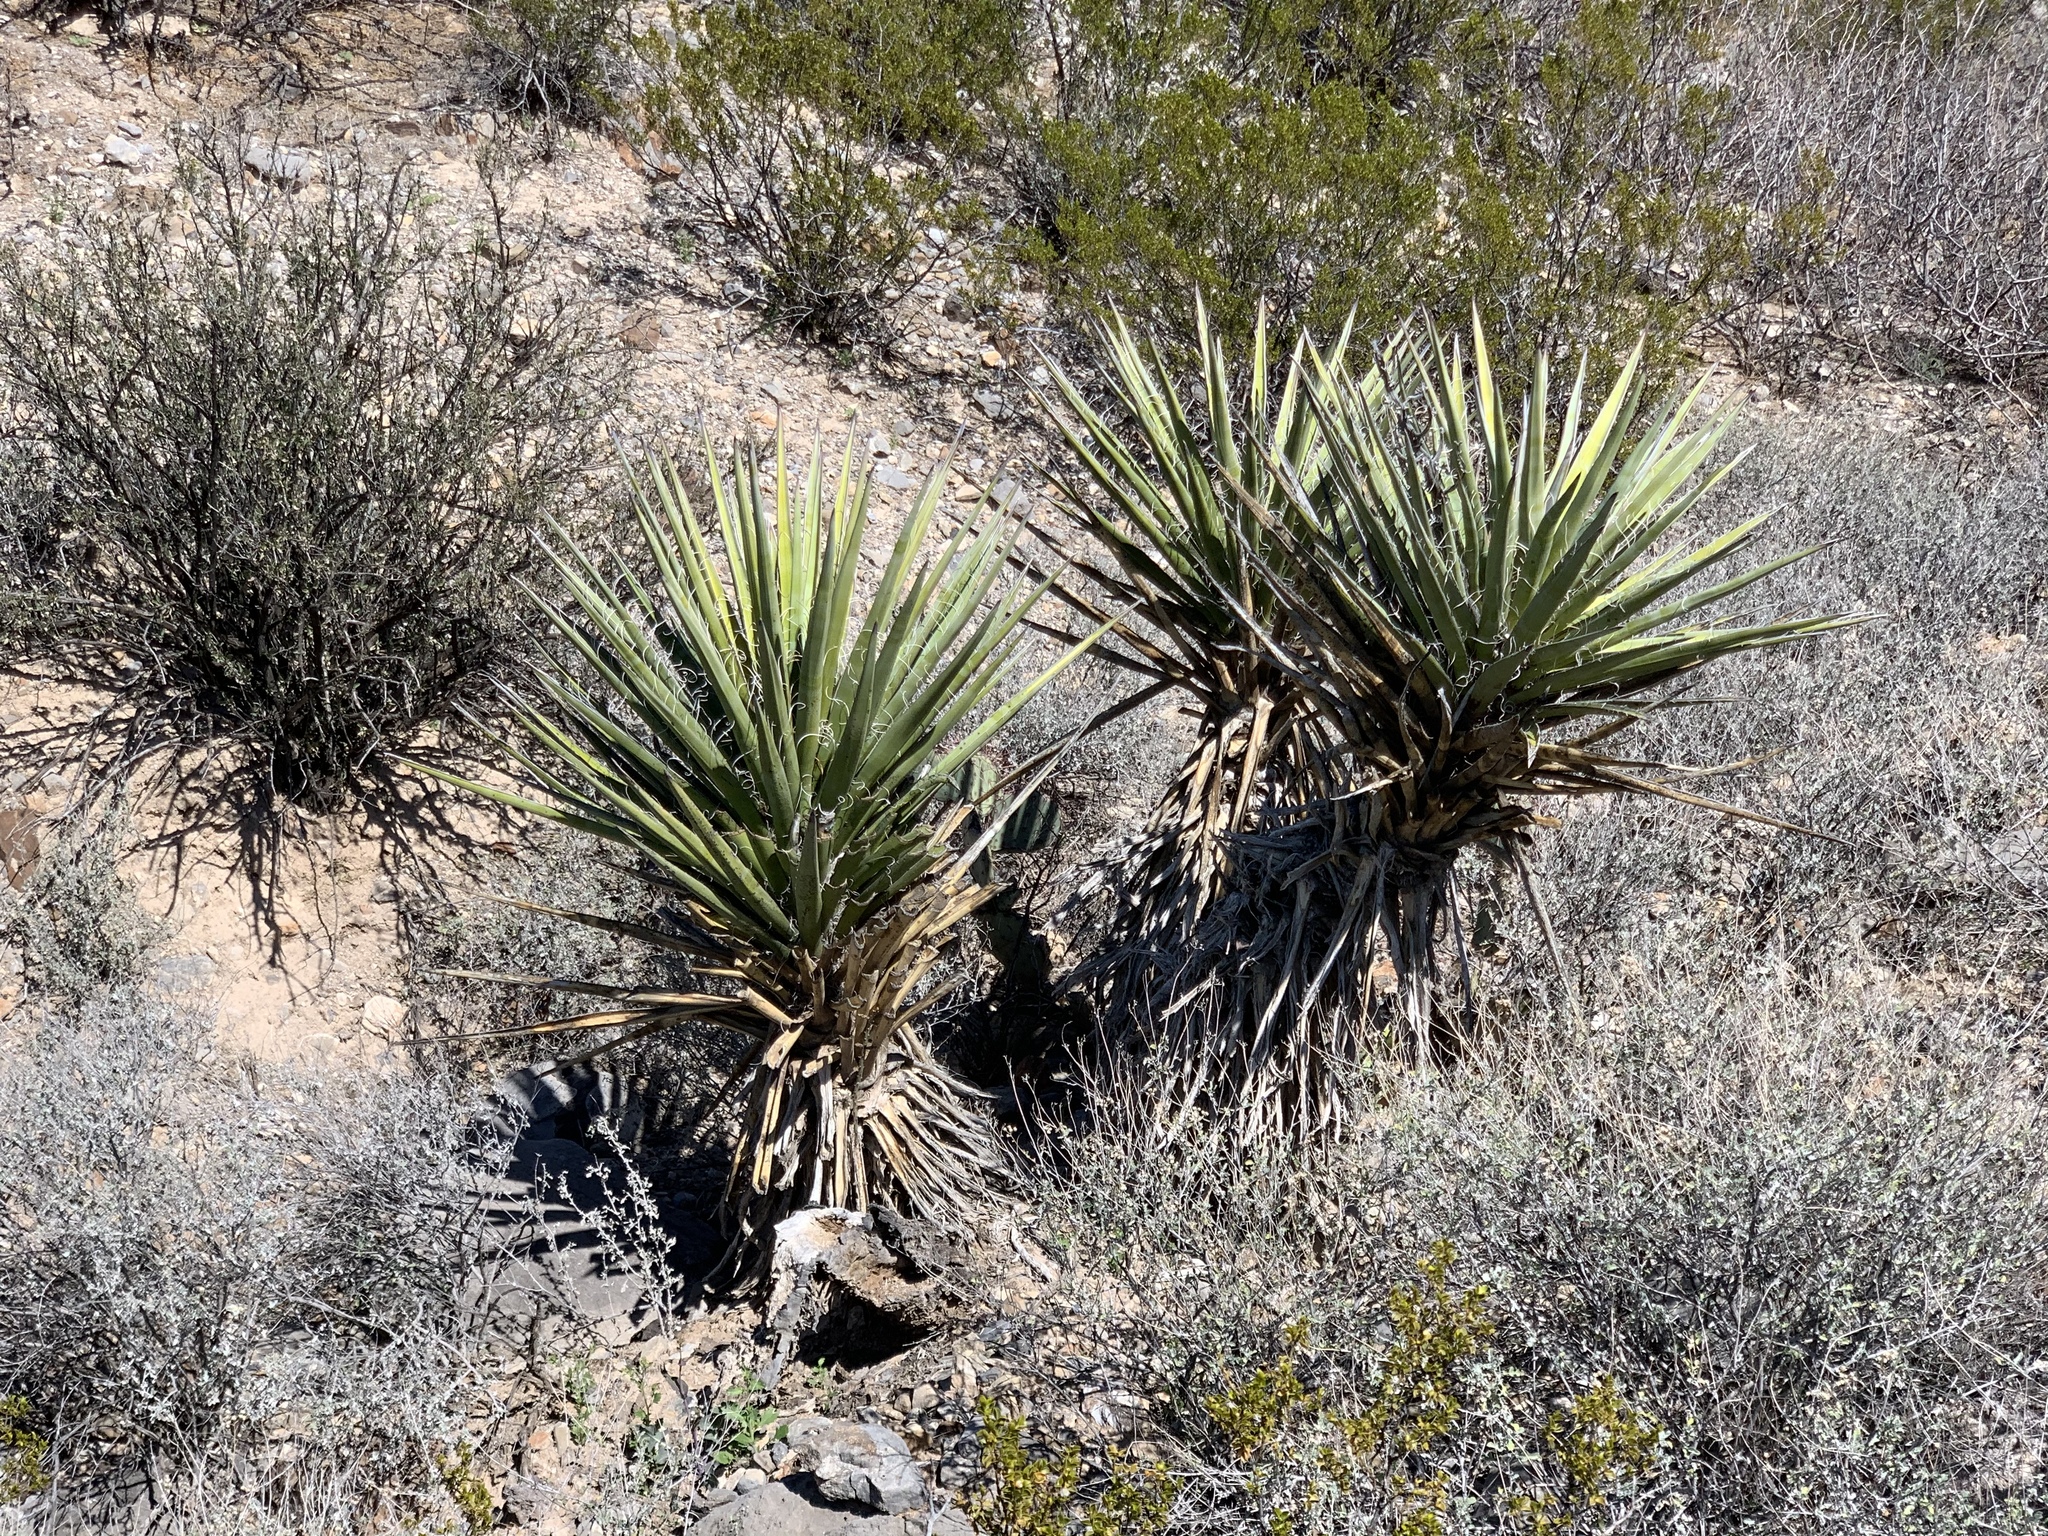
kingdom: Plantae
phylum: Tracheophyta
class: Liliopsida
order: Asparagales
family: Asparagaceae
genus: Yucca
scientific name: Yucca baccata
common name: Banana yucca
